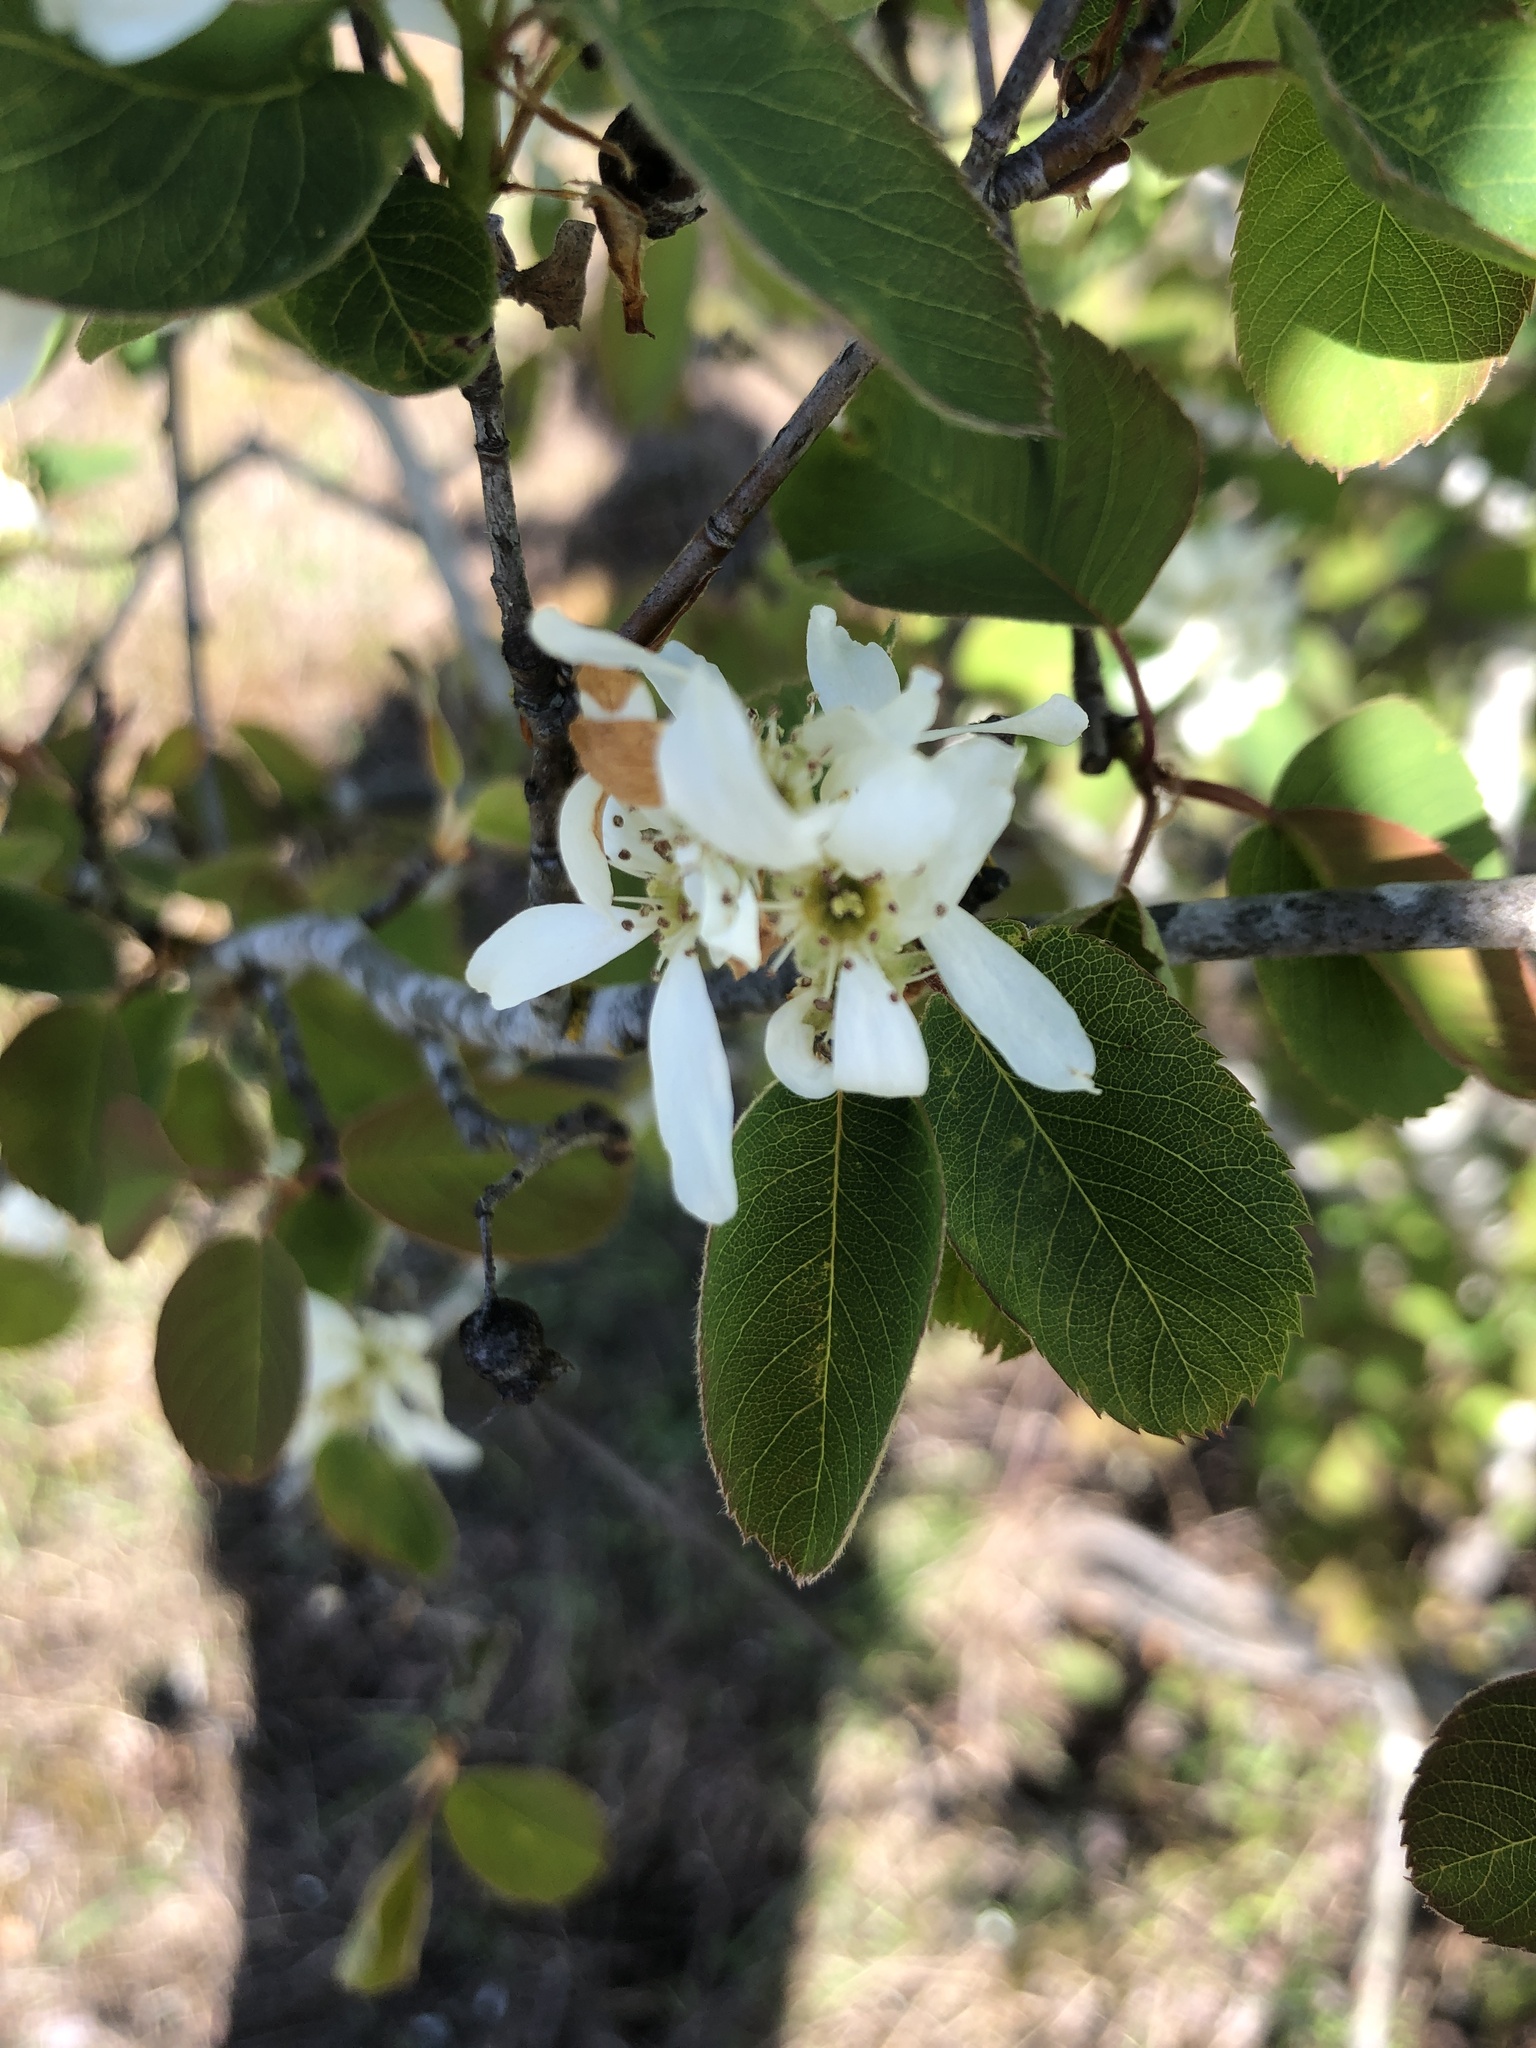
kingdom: Plantae
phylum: Tracheophyta
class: Magnoliopsida
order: Rosales
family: Rosaceae
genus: Amelanchier
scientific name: Amelanchier alnifolia
